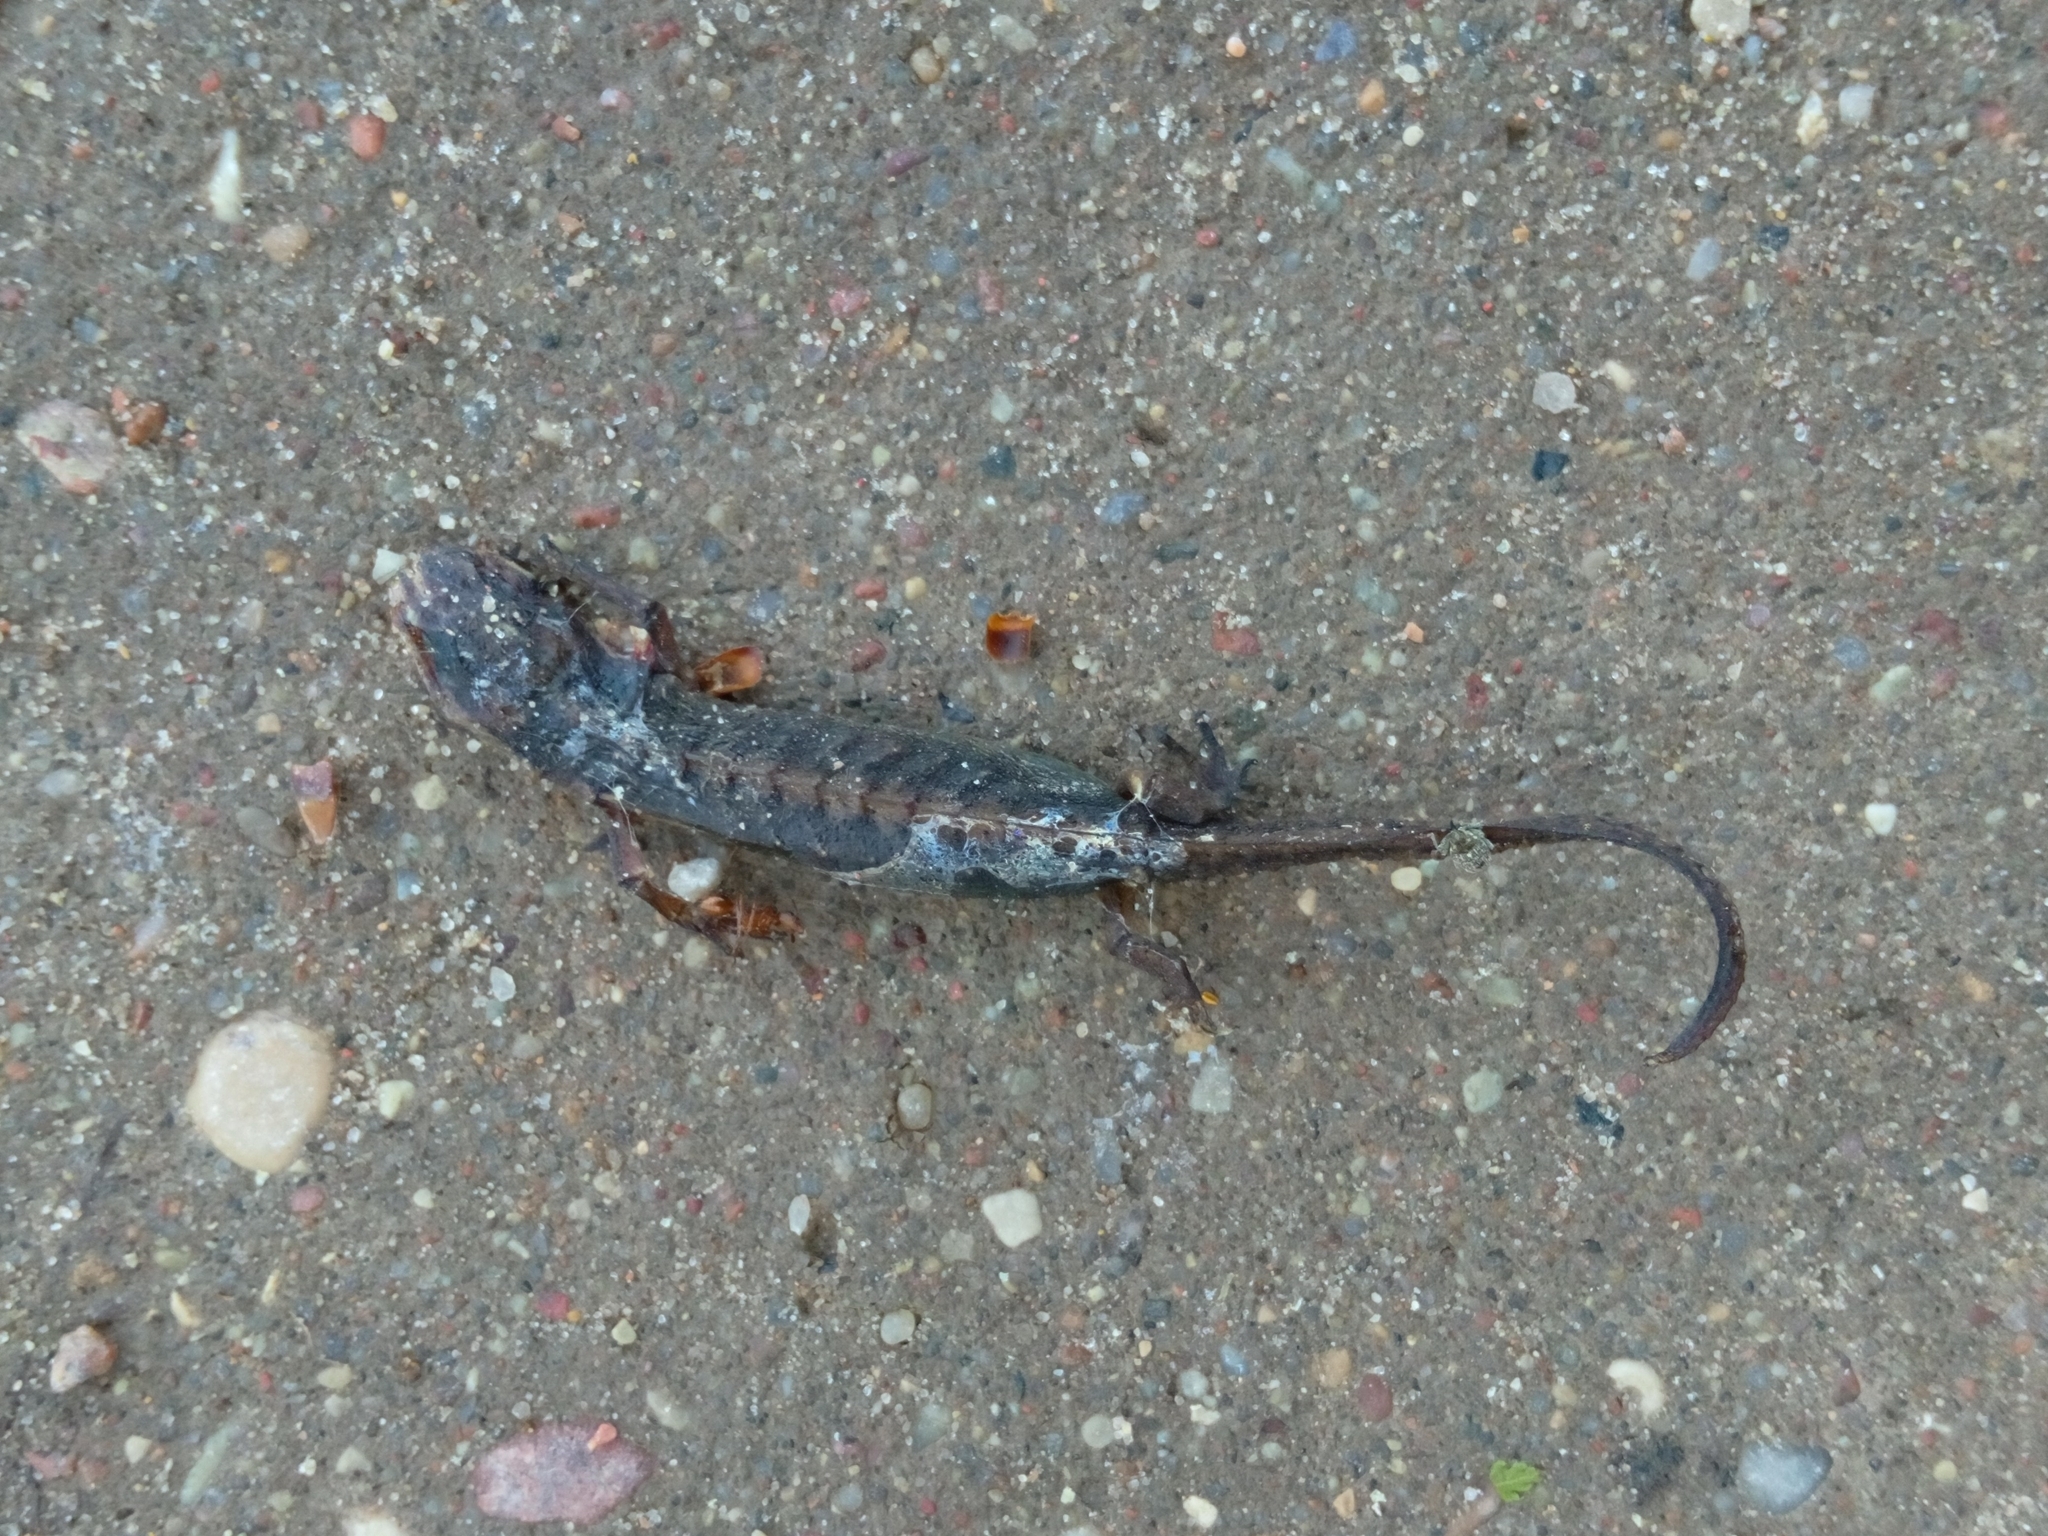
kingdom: Animalia
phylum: Chordata
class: Amphibia
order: Caudata
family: Salamandridae
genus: Lissotriton
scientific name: Lissotriton vulgaris
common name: Smooth newt
